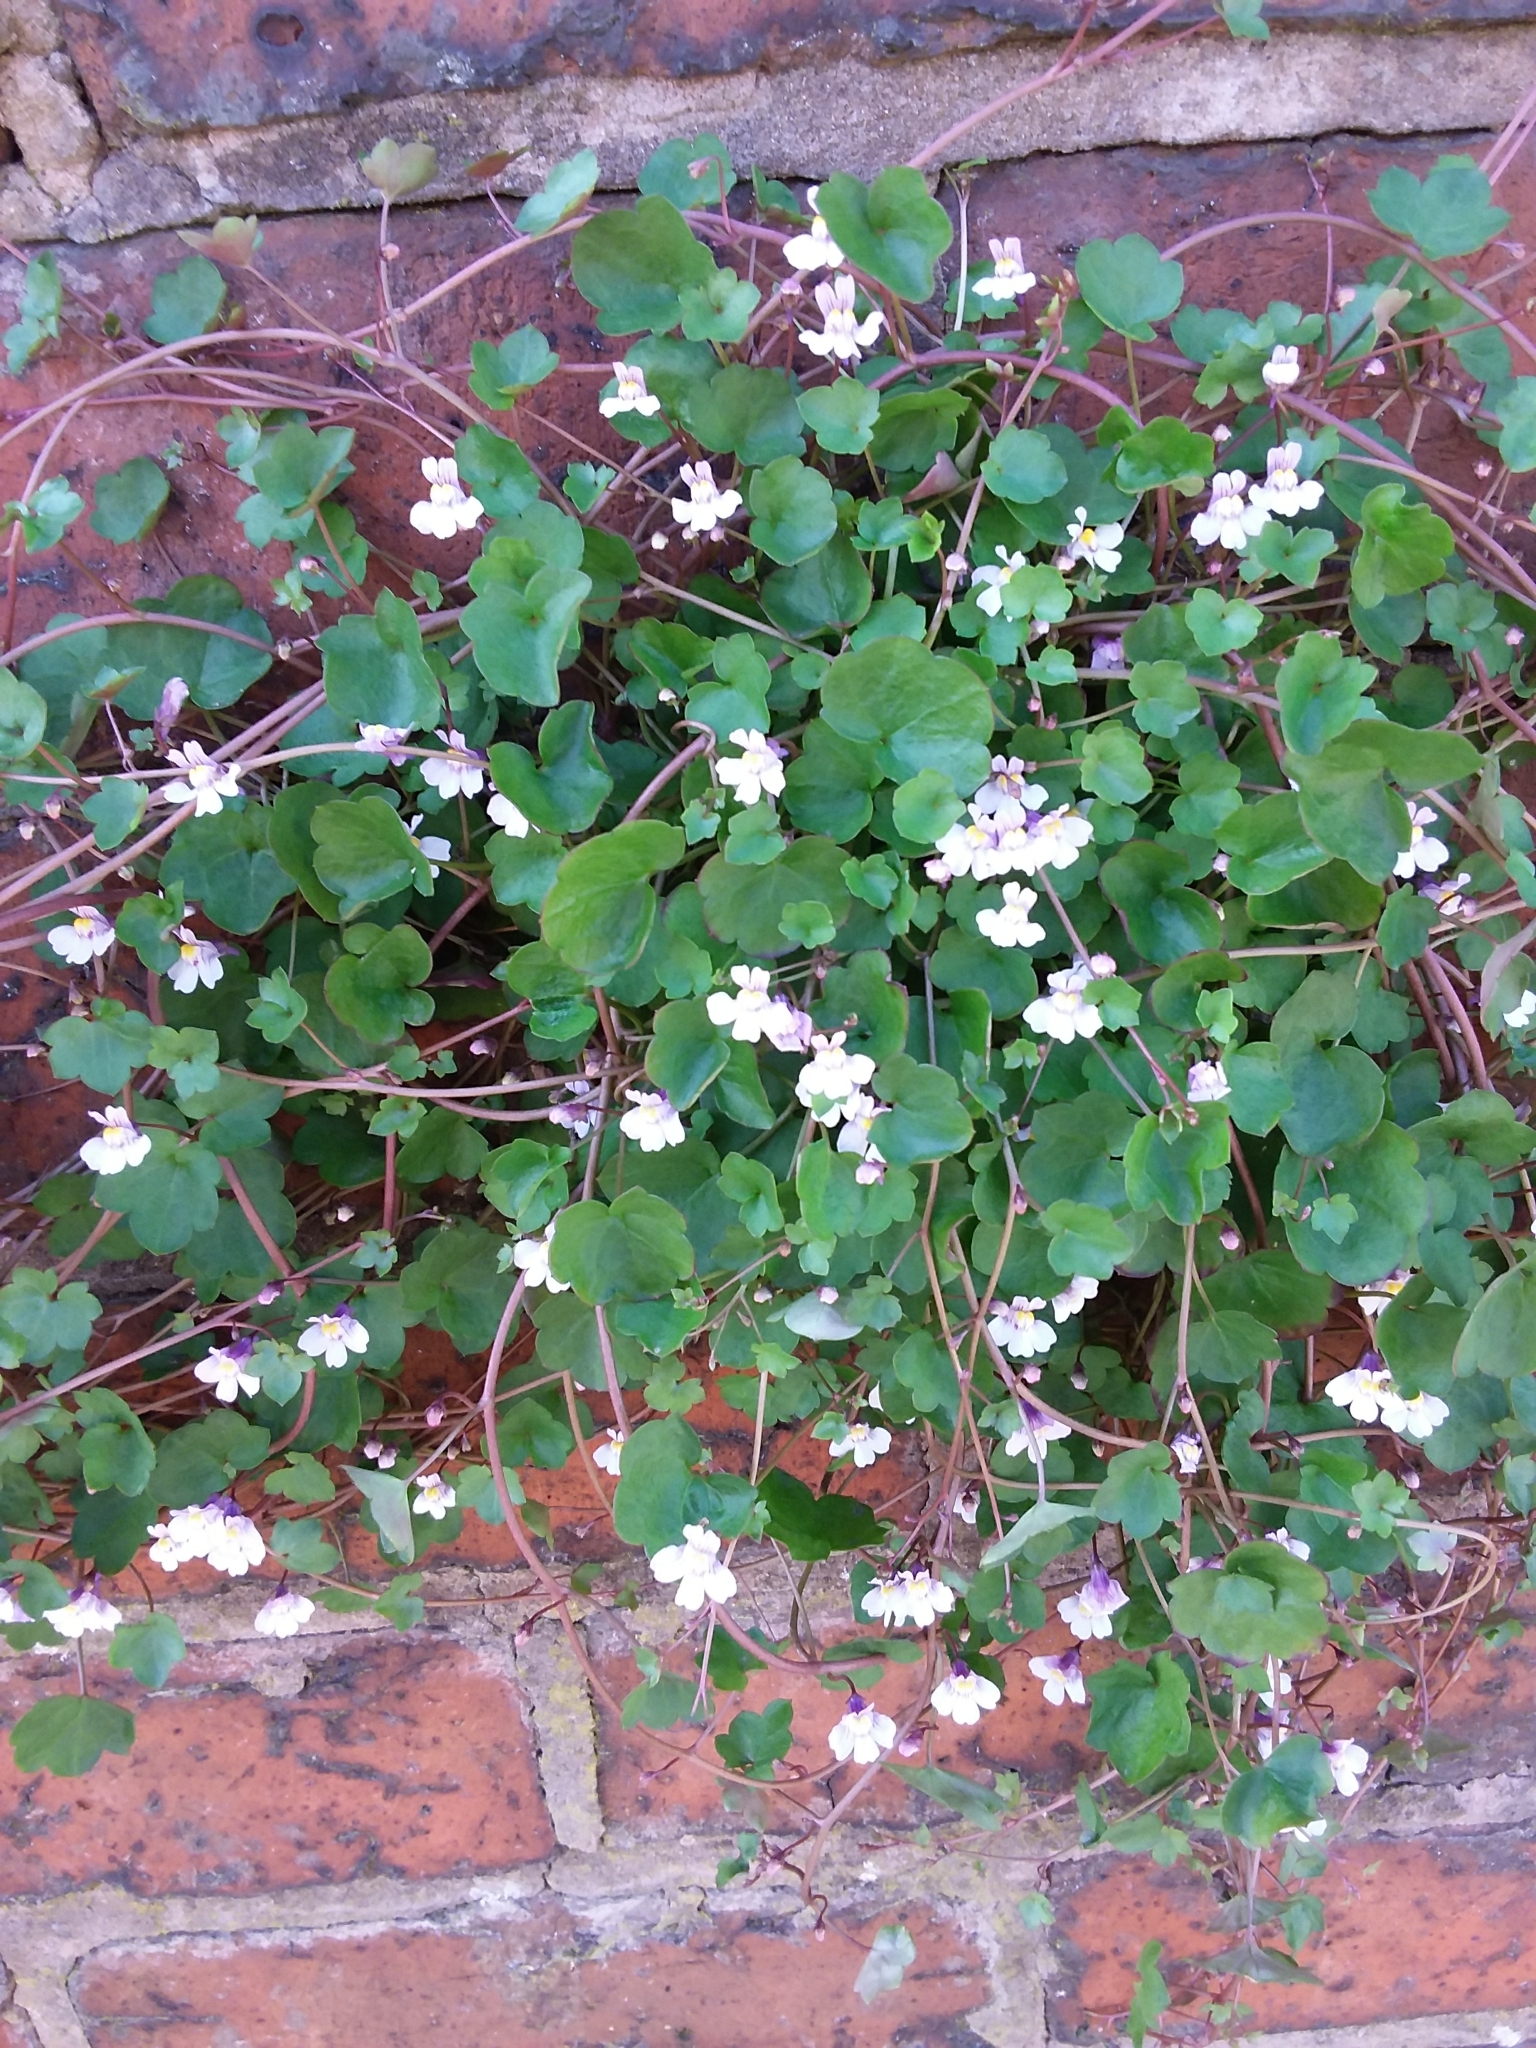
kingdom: Plantae
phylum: Tracheophyta
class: Magnoliopsida
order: Lamiales
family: Plantaginaceae
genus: Cymbalaria
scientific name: Cymbalaria muralis
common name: Ivy-leaved toadflax
